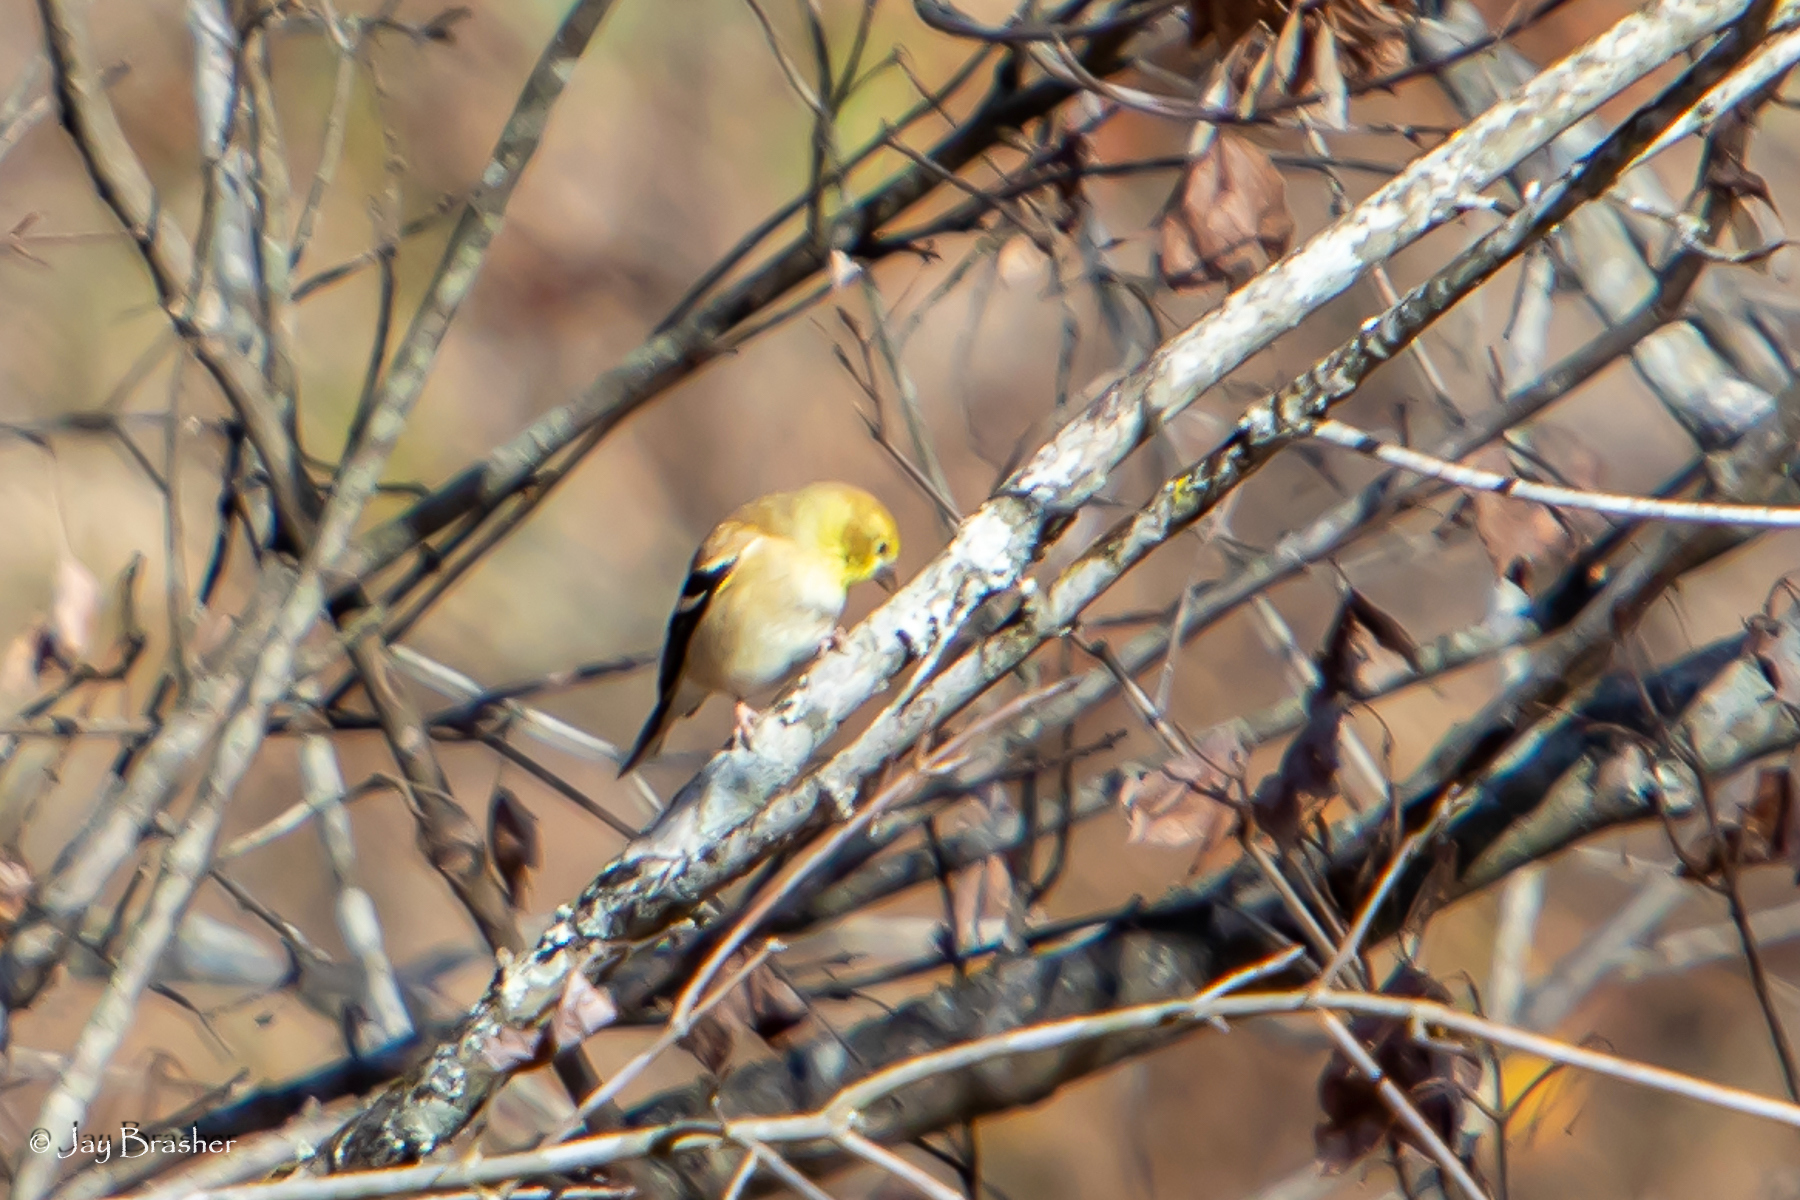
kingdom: Animalia
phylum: Chordata
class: Aves
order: Passeriformes
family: Fringillidae
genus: Spinus
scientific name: Spinus tristis
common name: American goldfinch
